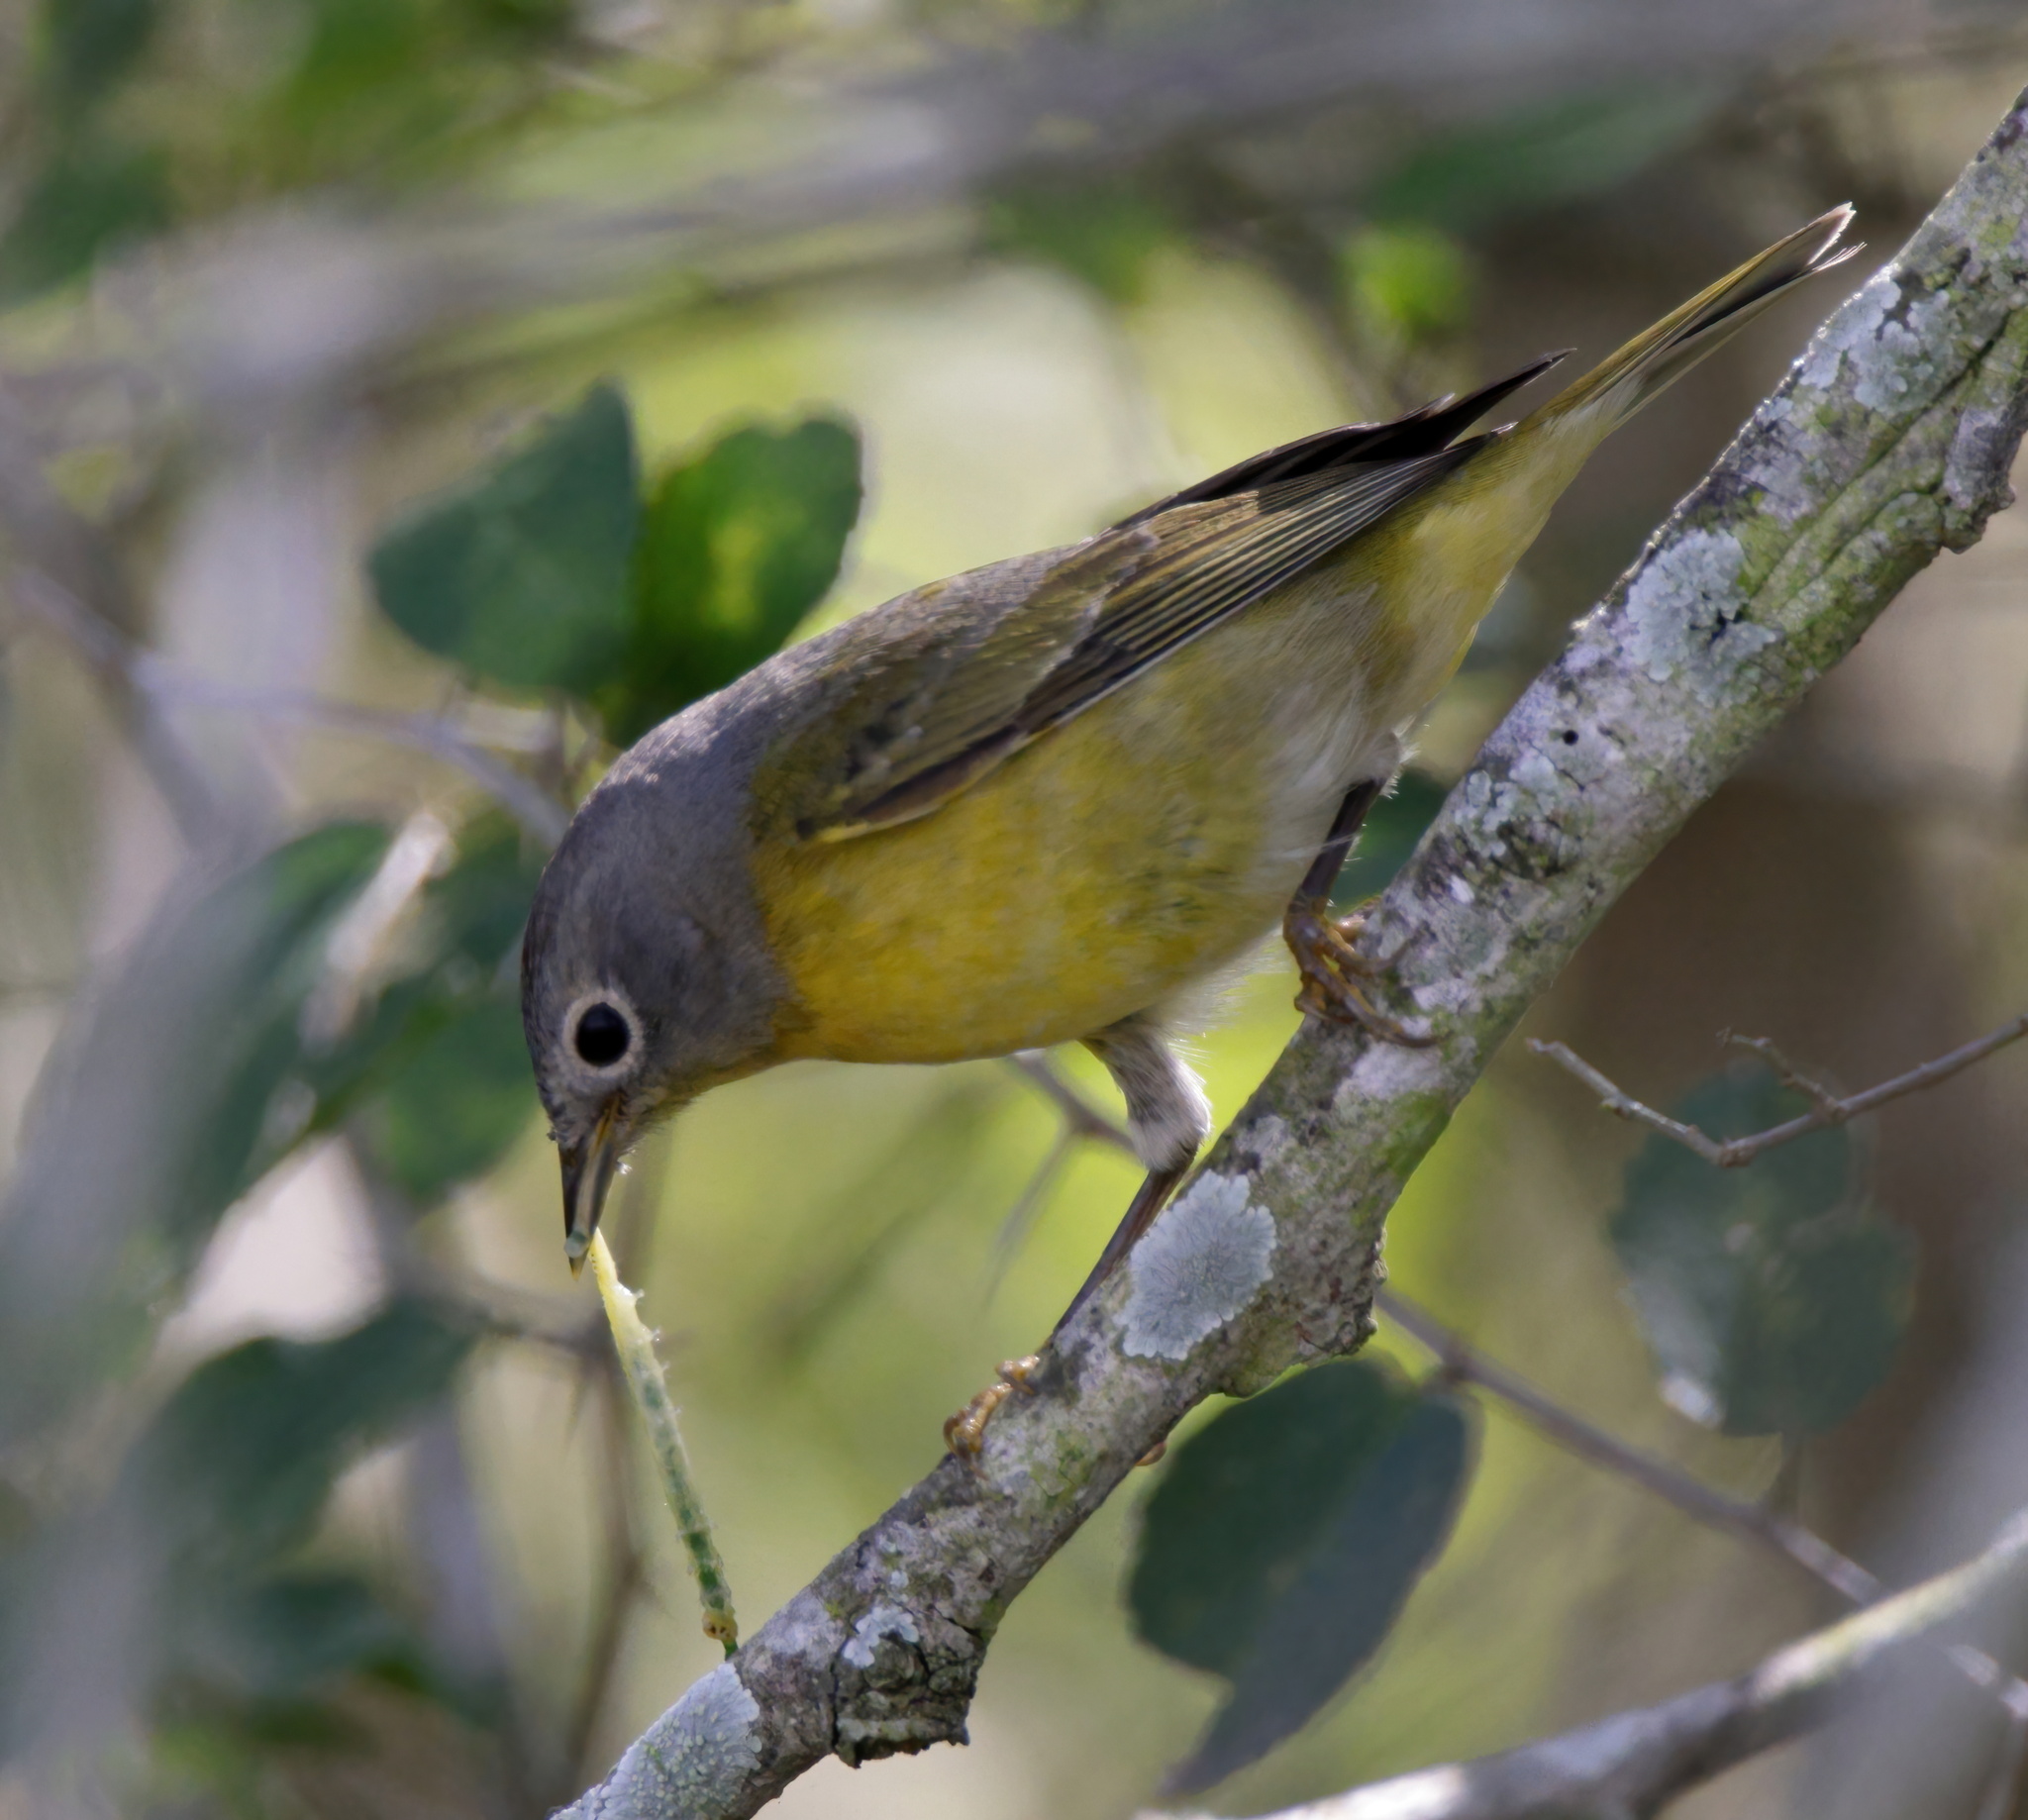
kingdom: Animalia
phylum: Chordata
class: Aves
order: Passeriformes
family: Parulidae
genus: Leiothlypis
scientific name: Leiothlypis ruficapilla
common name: Nashville warbler
